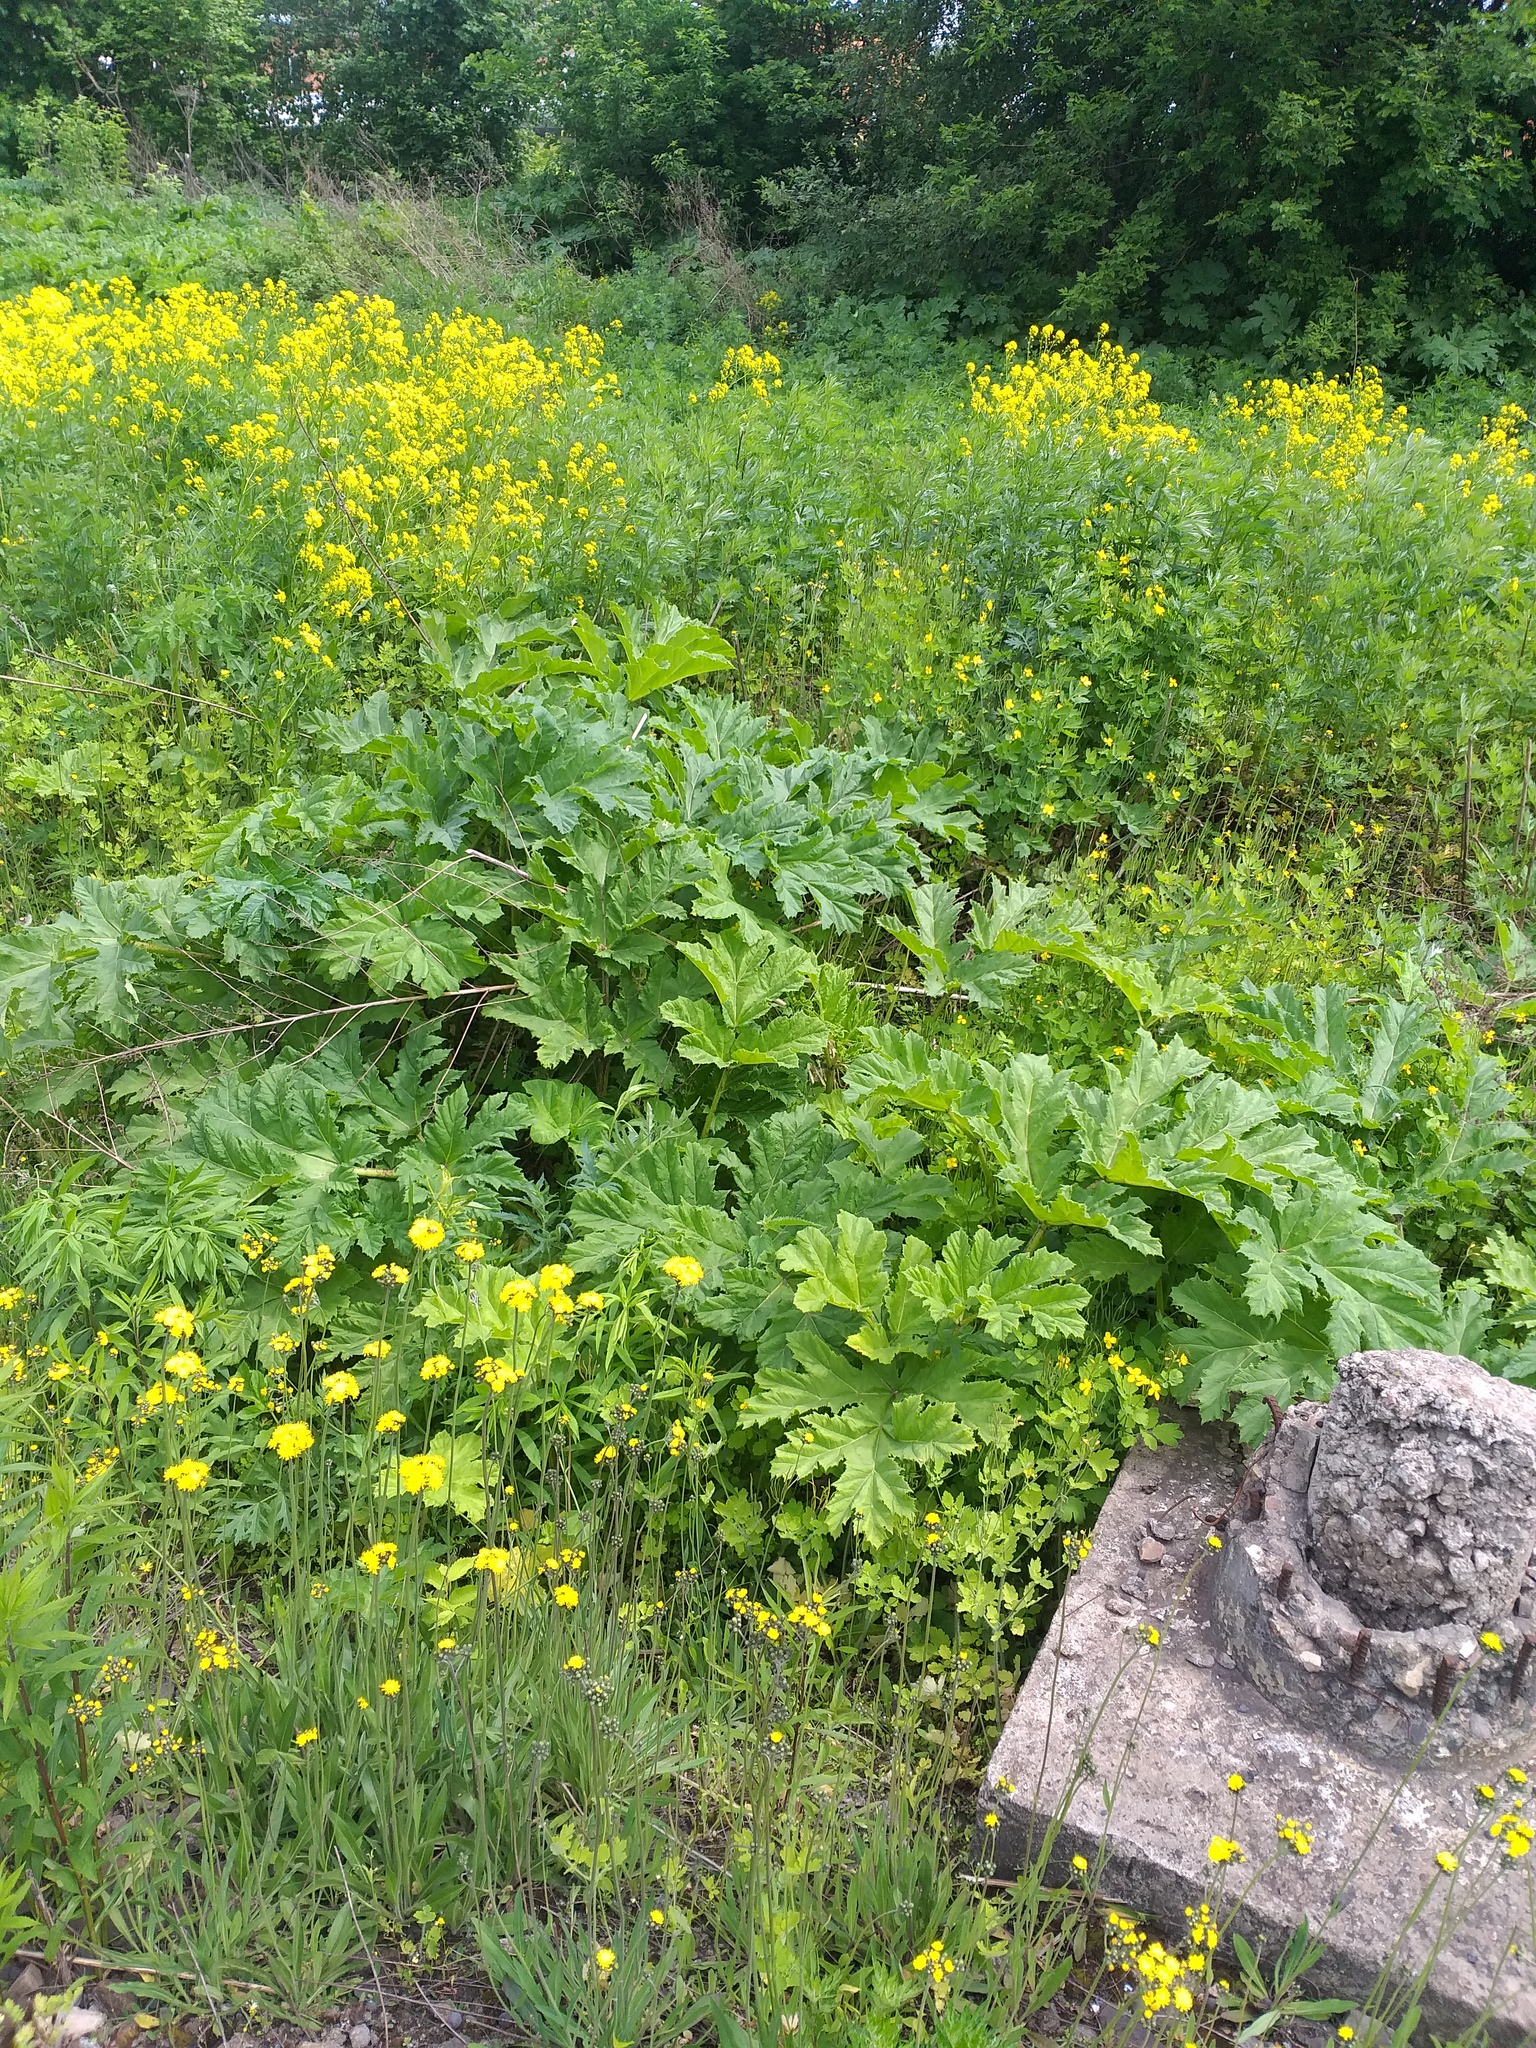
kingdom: Plantae
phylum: Tracheophyta
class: Magnoliopsida
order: Apiales
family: Apiaceae
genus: Heracleum
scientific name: Heracleum sosnowskyi
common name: Sosnowsky's hogweed
